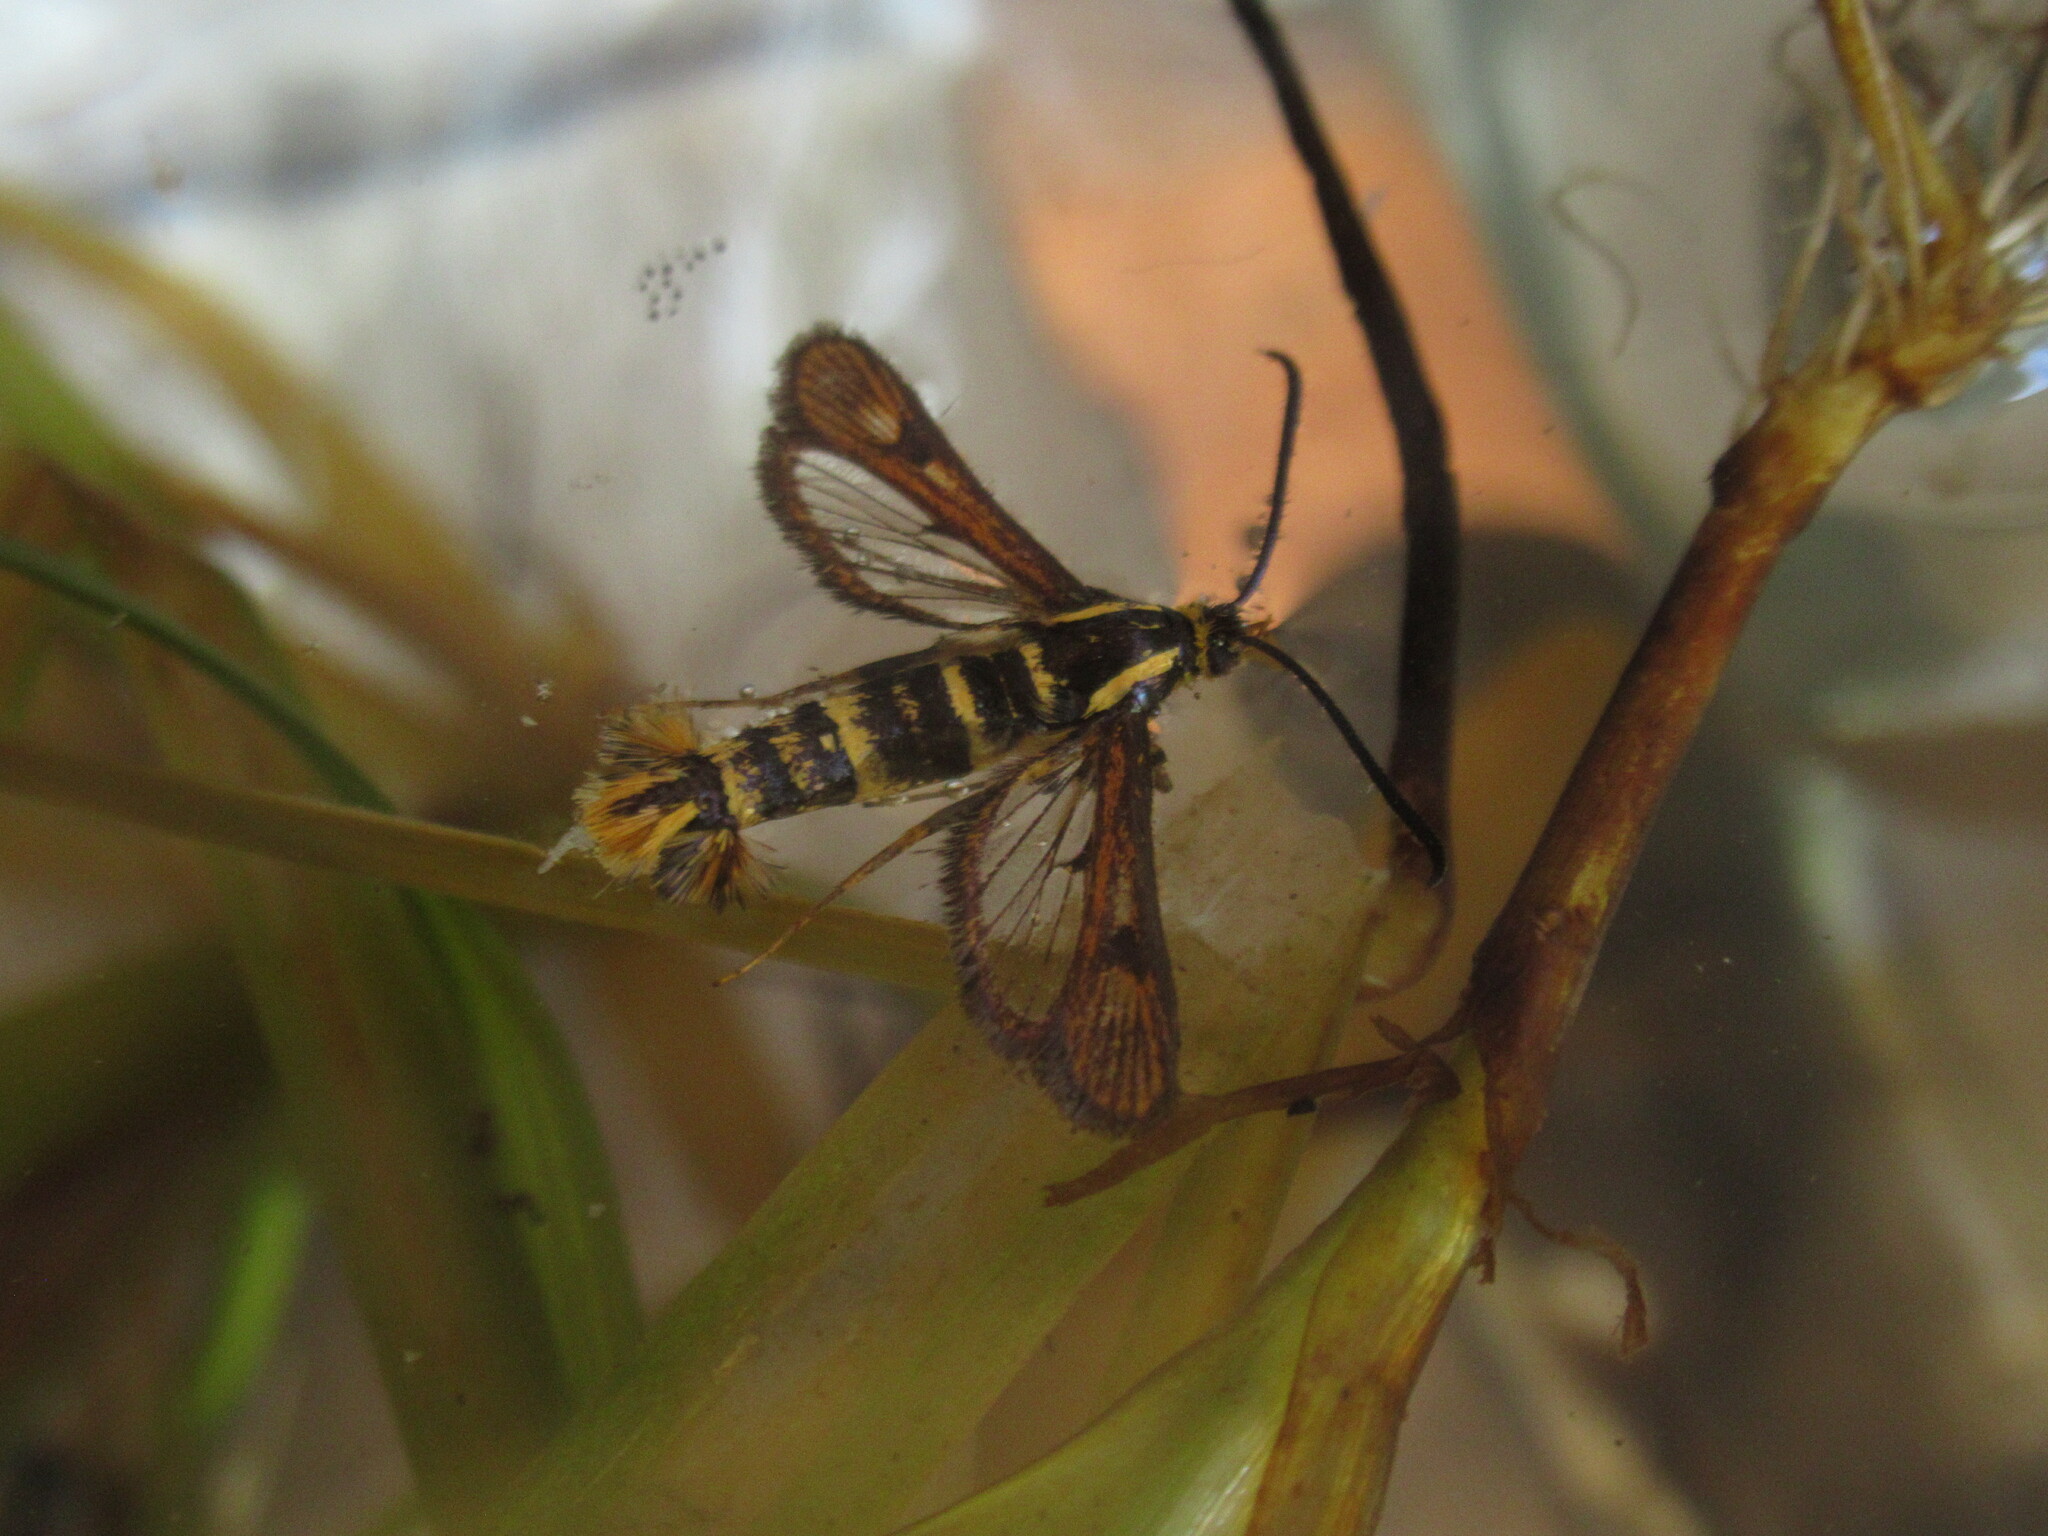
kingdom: Animalia
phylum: Arthropoda
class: Insecta
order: Lepidoptera
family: Sesiidae
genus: Synanthedon
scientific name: Synanthedon bibionipennis
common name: Strawberry crown moth
